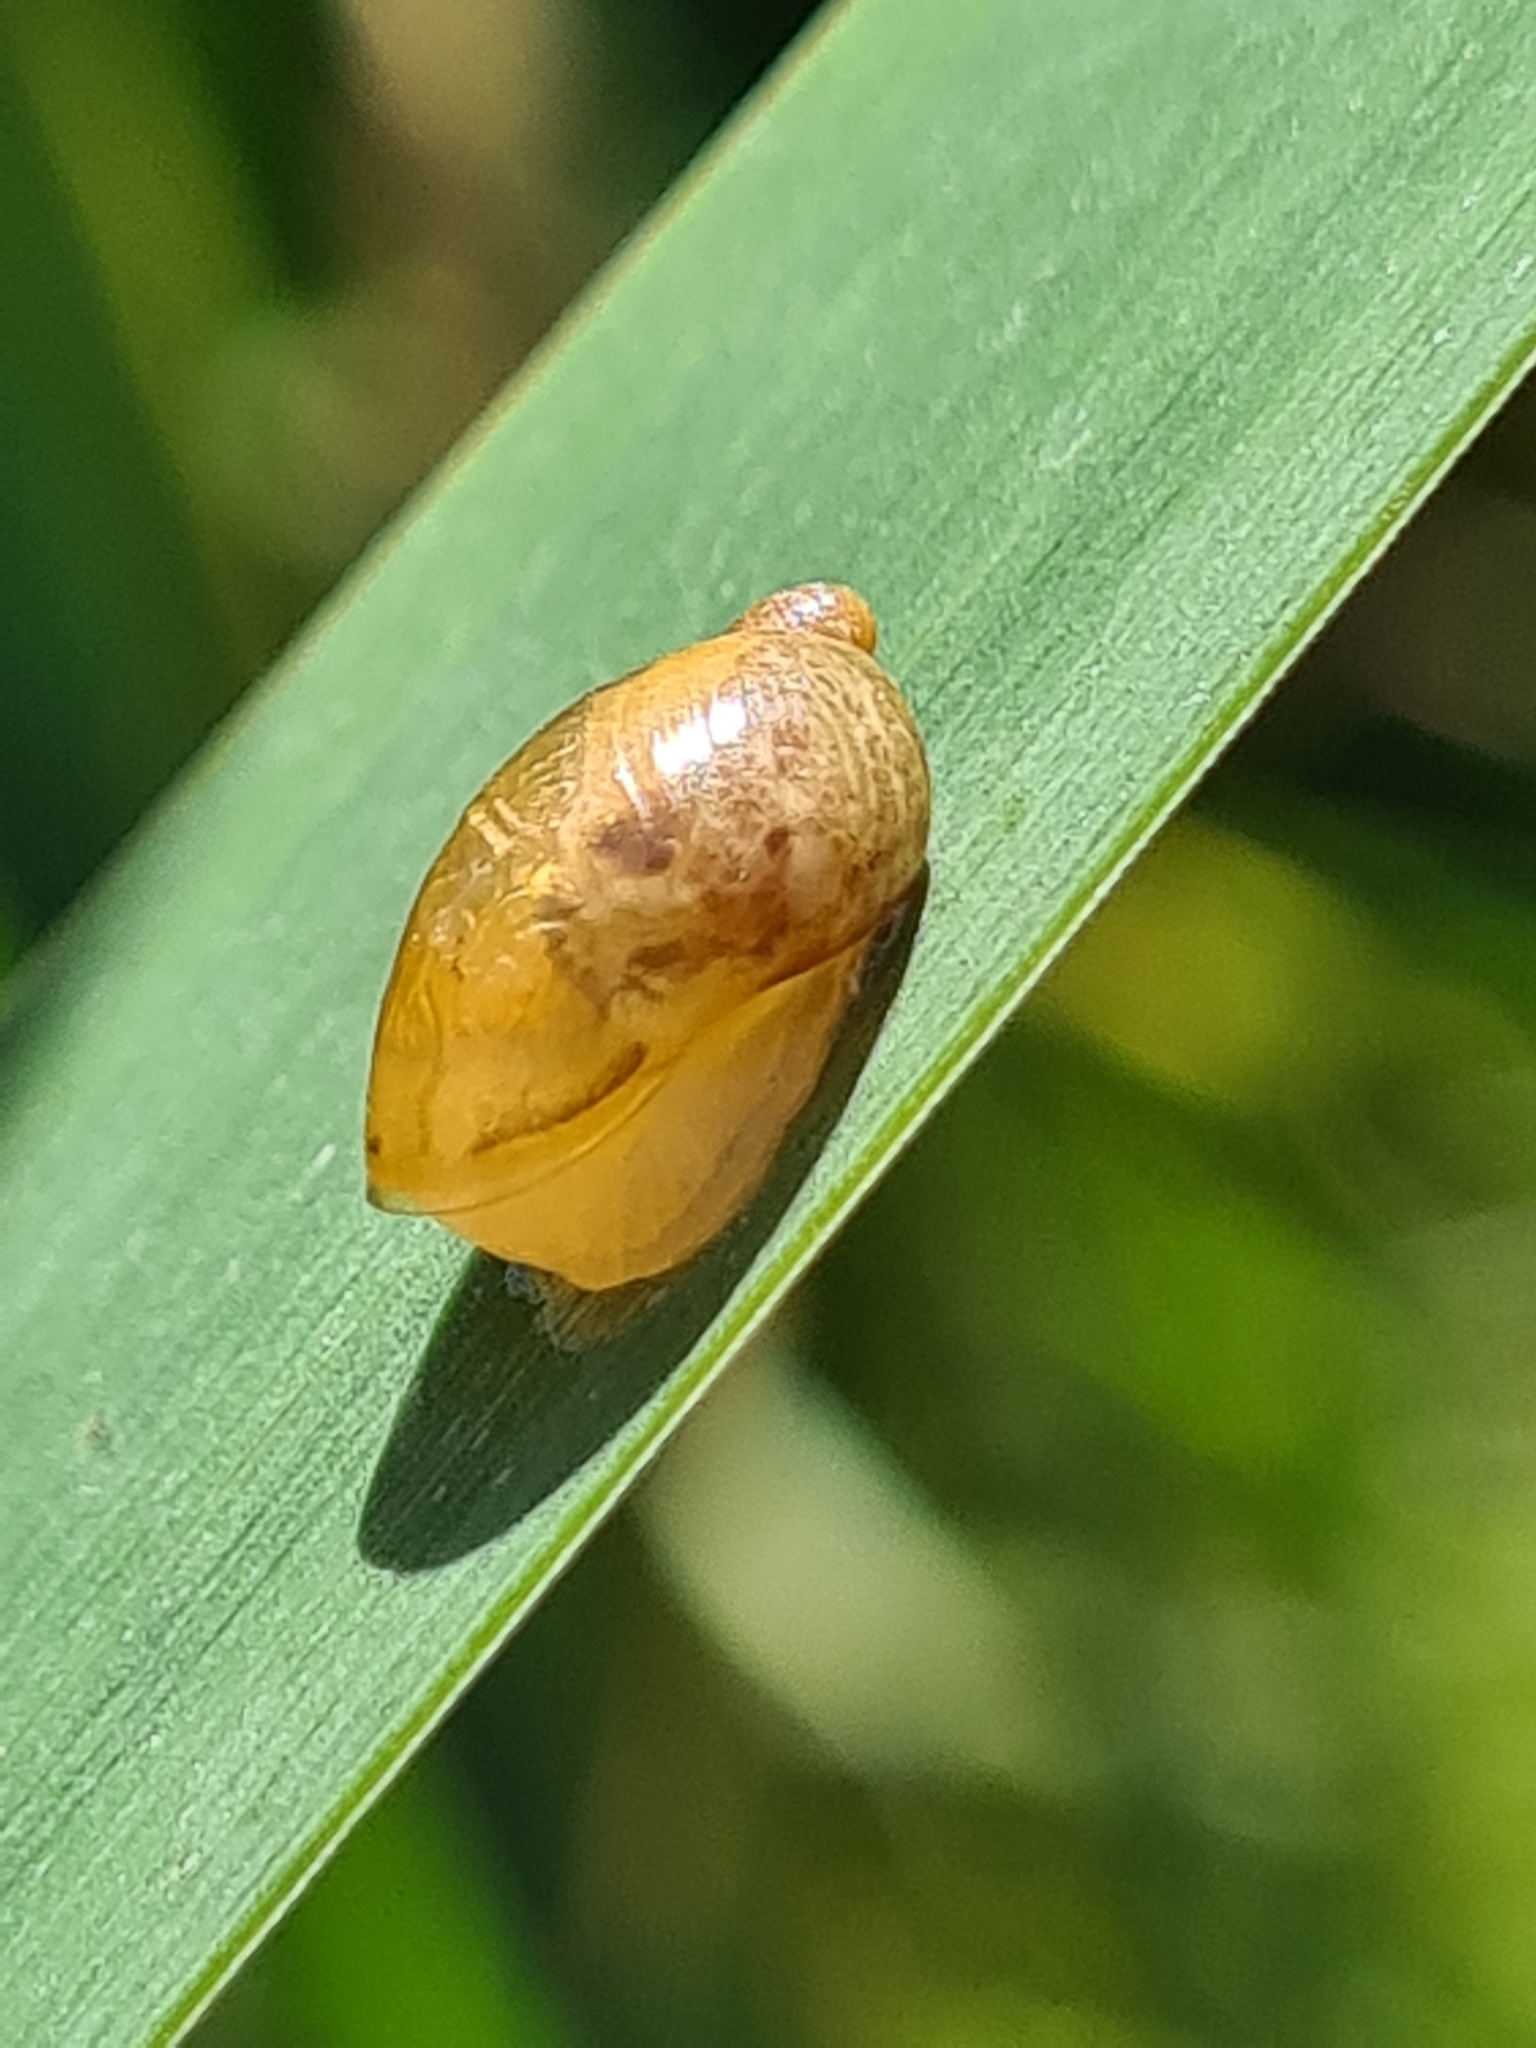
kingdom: Animalia
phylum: Mollusca
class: Gastropoda
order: Stylommatophora
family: Succineidae
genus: Succinea
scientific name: Succinea putris
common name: European ambersnail
